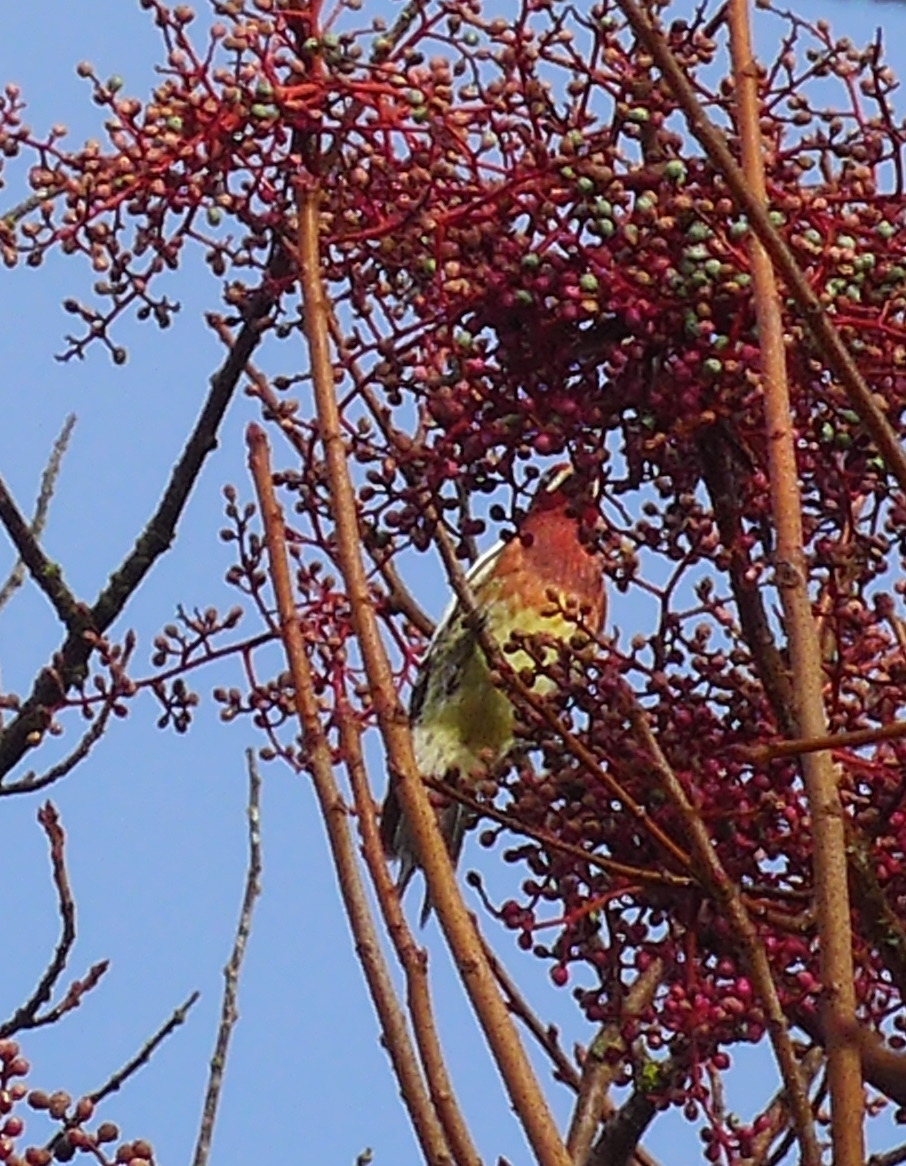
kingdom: Animalia
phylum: Chordata
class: Aves
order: Piciformes
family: Picidae
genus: Sphyrapicus
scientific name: Sphyrapicus ruber
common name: Red-breasted sapsucker
